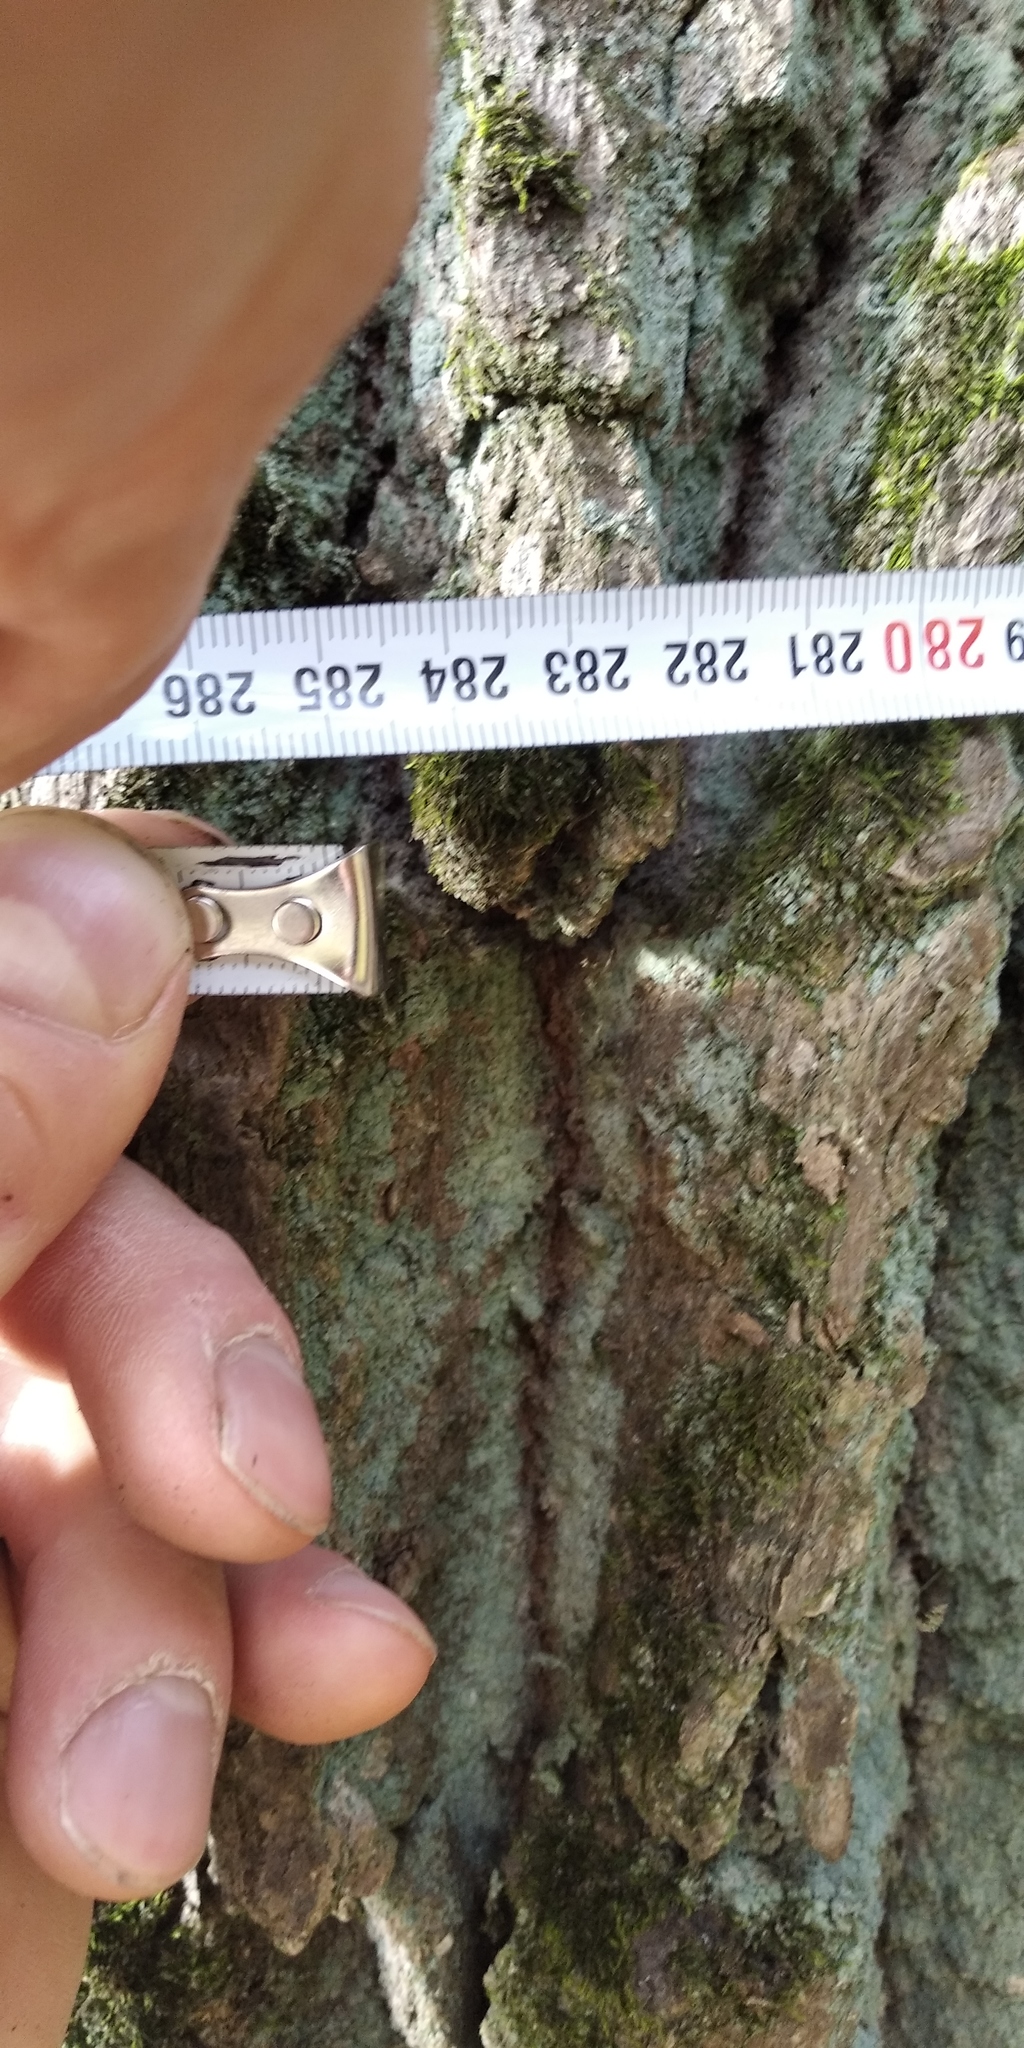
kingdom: Plantae
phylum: Tracheophyta
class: Magnoliopsida
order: Fagales
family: Fagaceae
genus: Quercus
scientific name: Quercus robur
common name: Pedunculate oak
